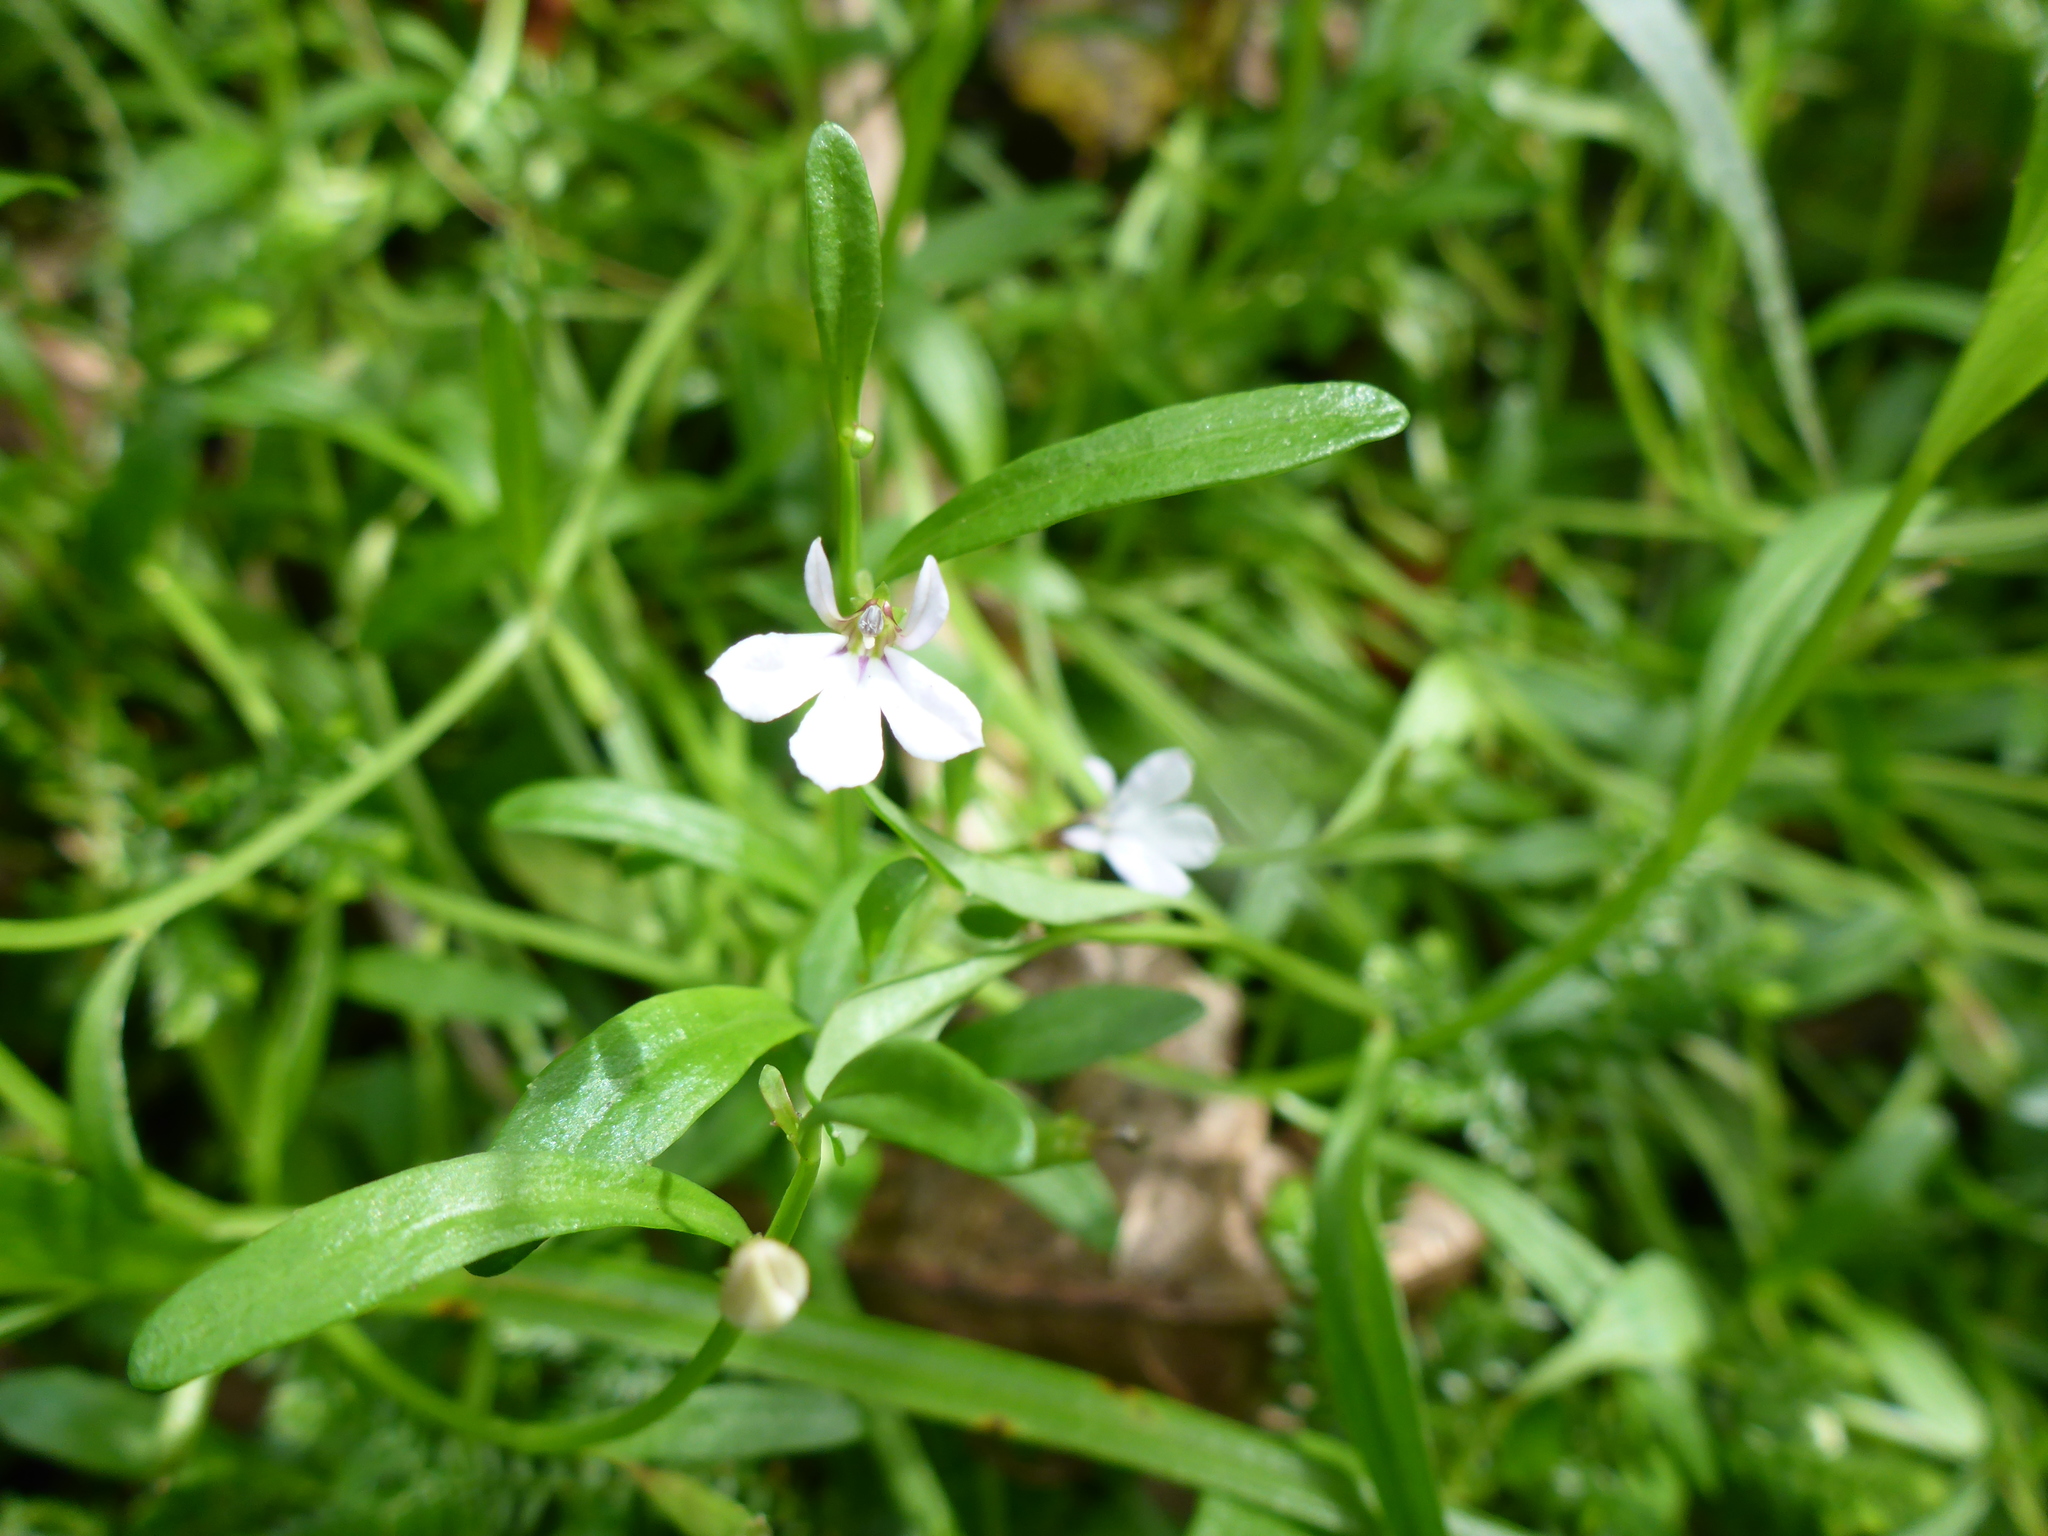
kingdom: Plantae
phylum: Tracheophyta
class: Magnoliopsida
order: Asterales
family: Campanulaceae
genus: Lobelia
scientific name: Lobelia anceps
